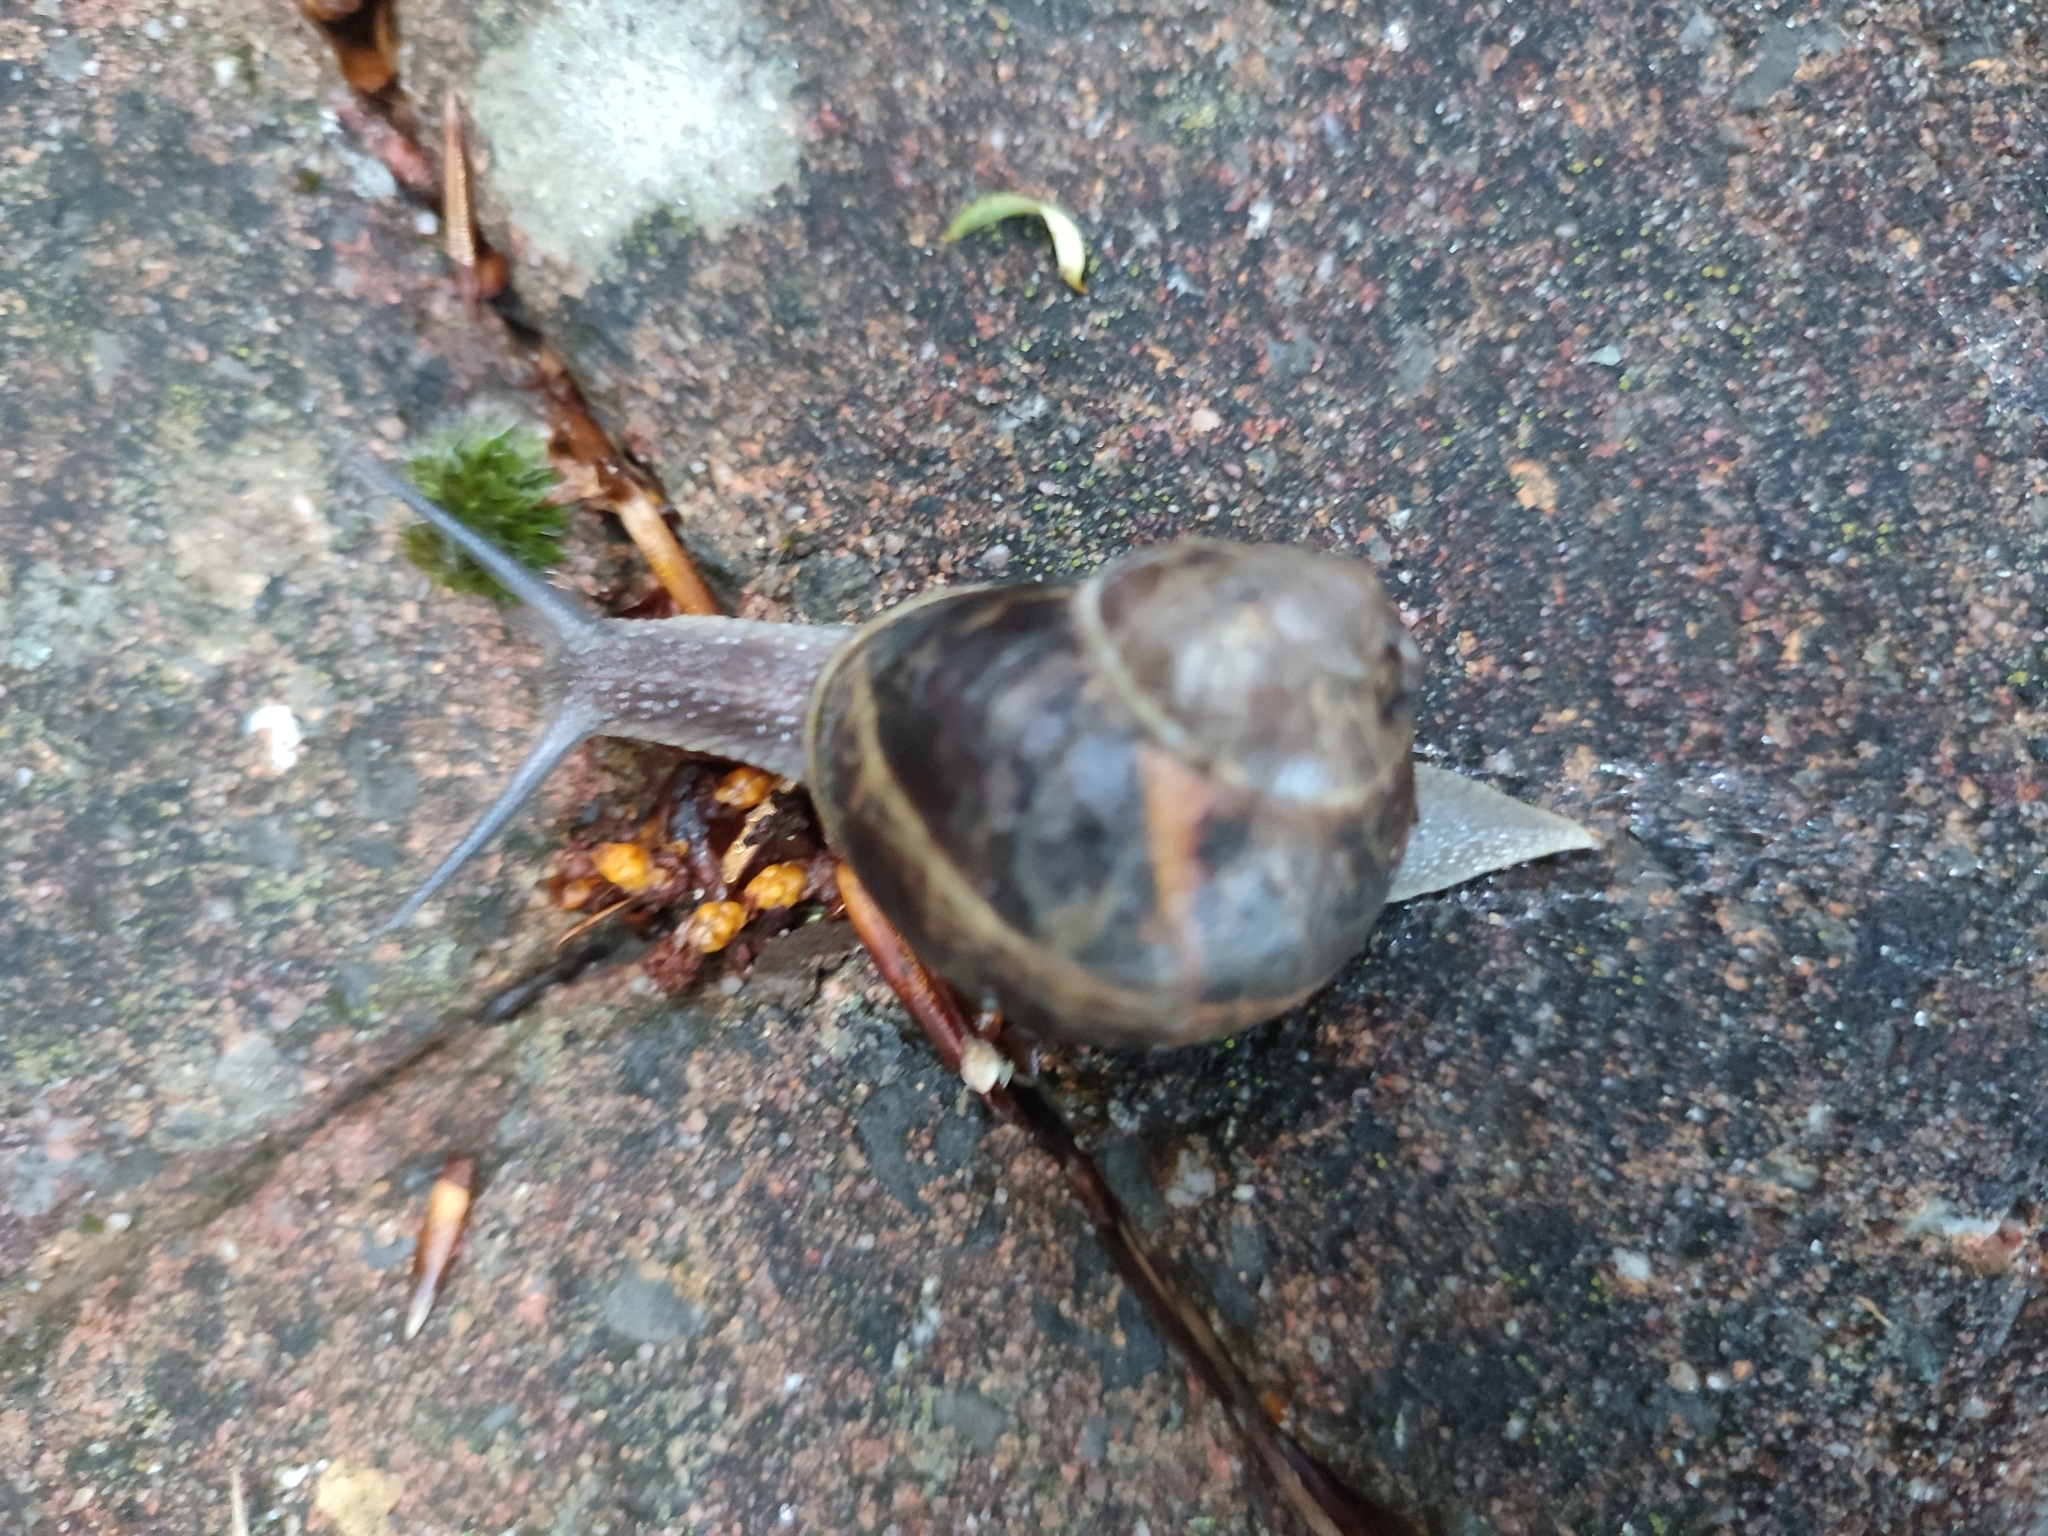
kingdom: Animalia
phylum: Mollusca
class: Gastropoda
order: Stylommatophora
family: Helicidae
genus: Cornu
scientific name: Cornu aspersum
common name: Brown garden snail
